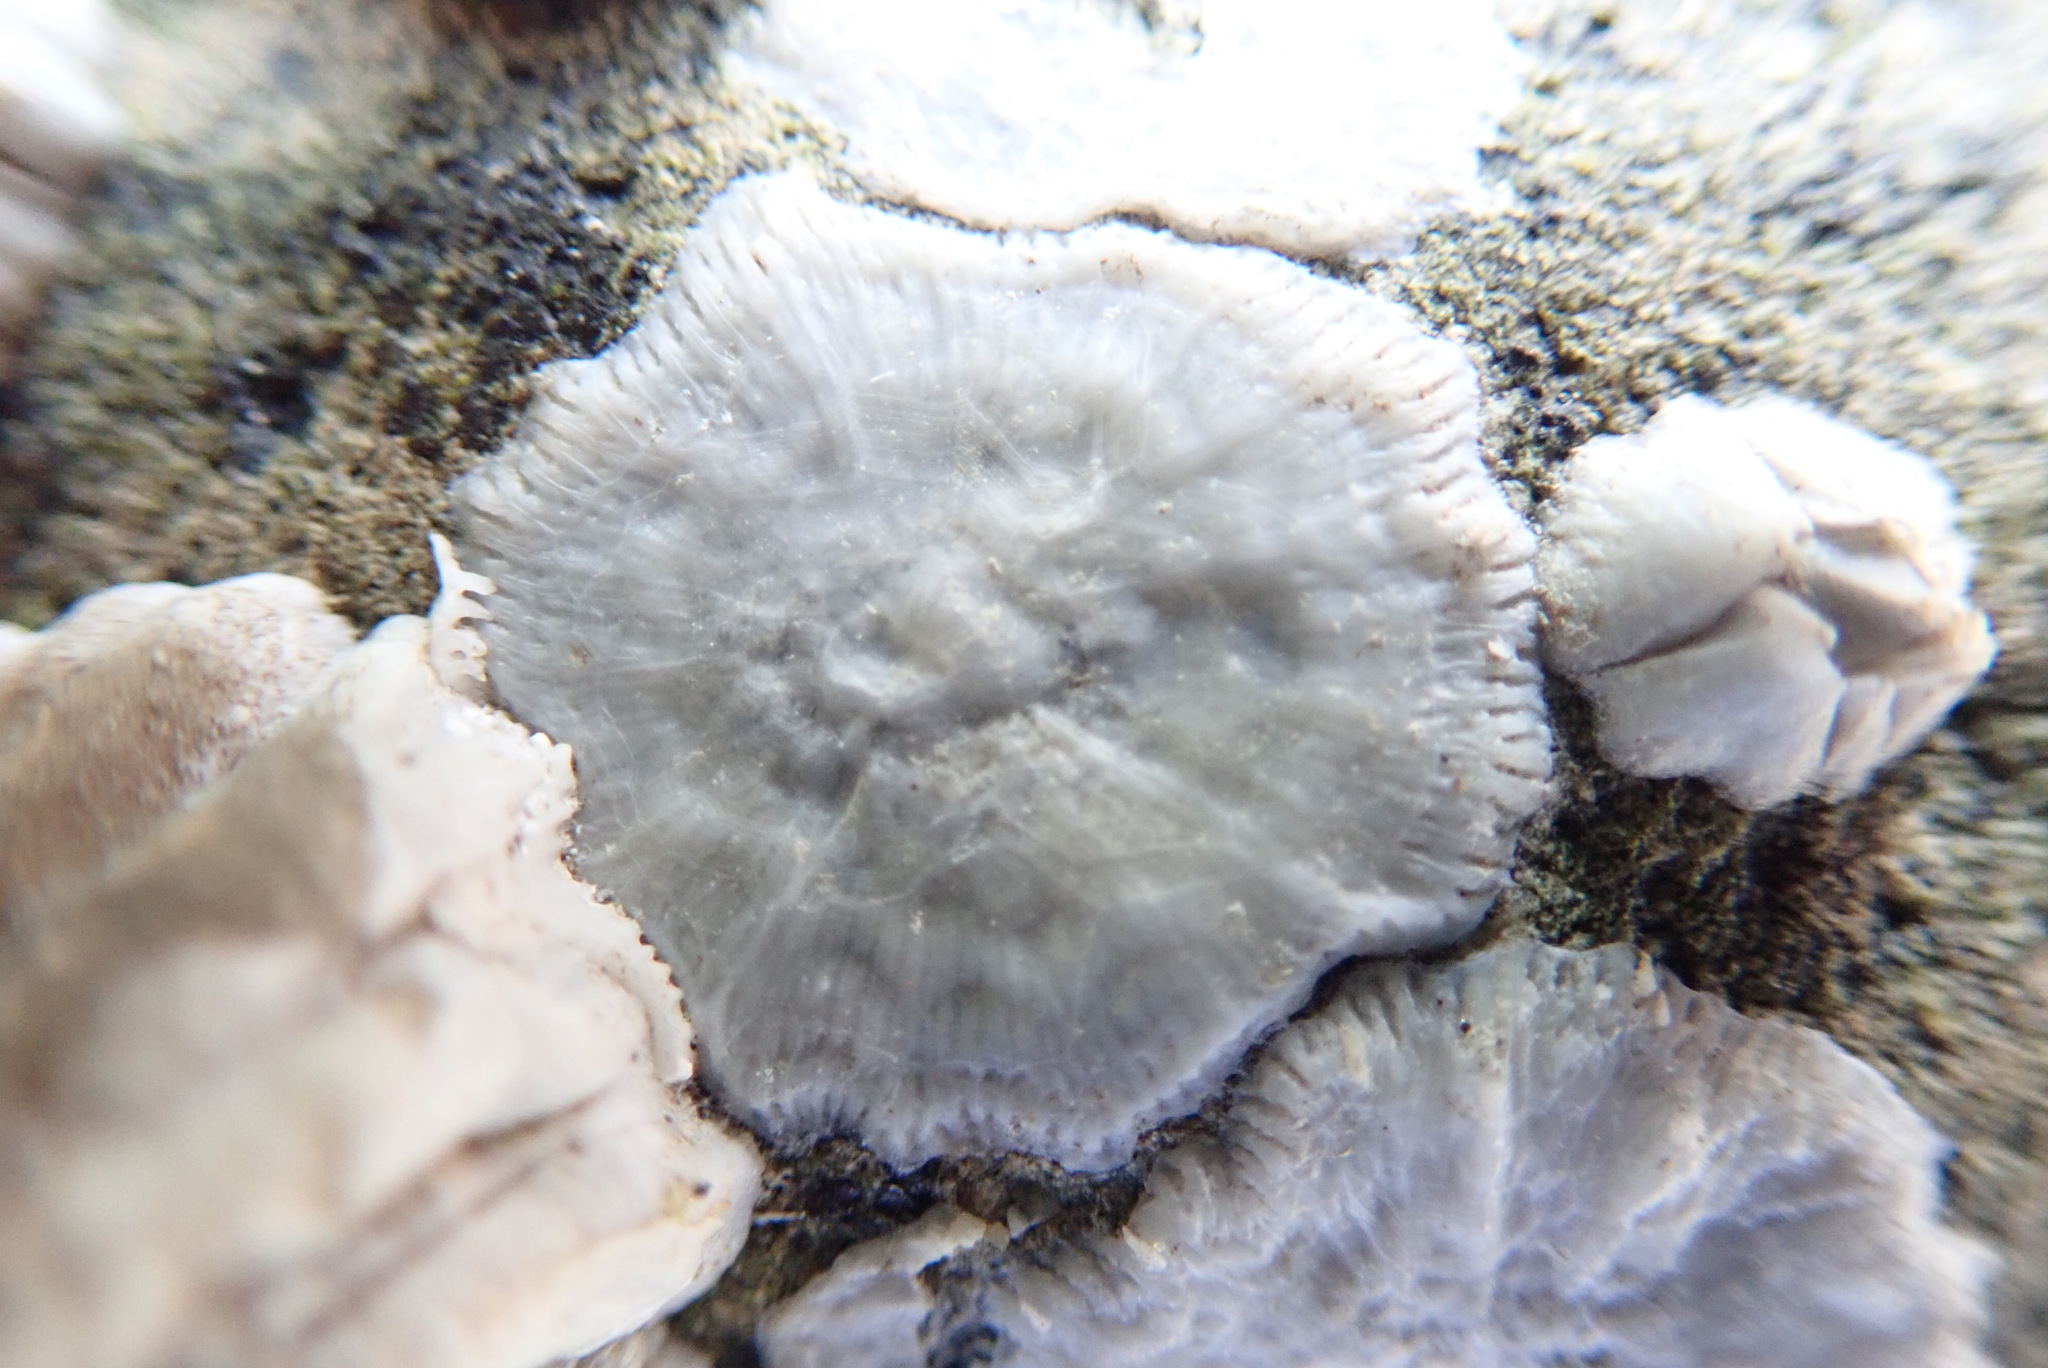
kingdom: Animalia
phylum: Arthropoda
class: Maxillopoda
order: Sessilia
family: Balanidae
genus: Balanus
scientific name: Balanus glandula
